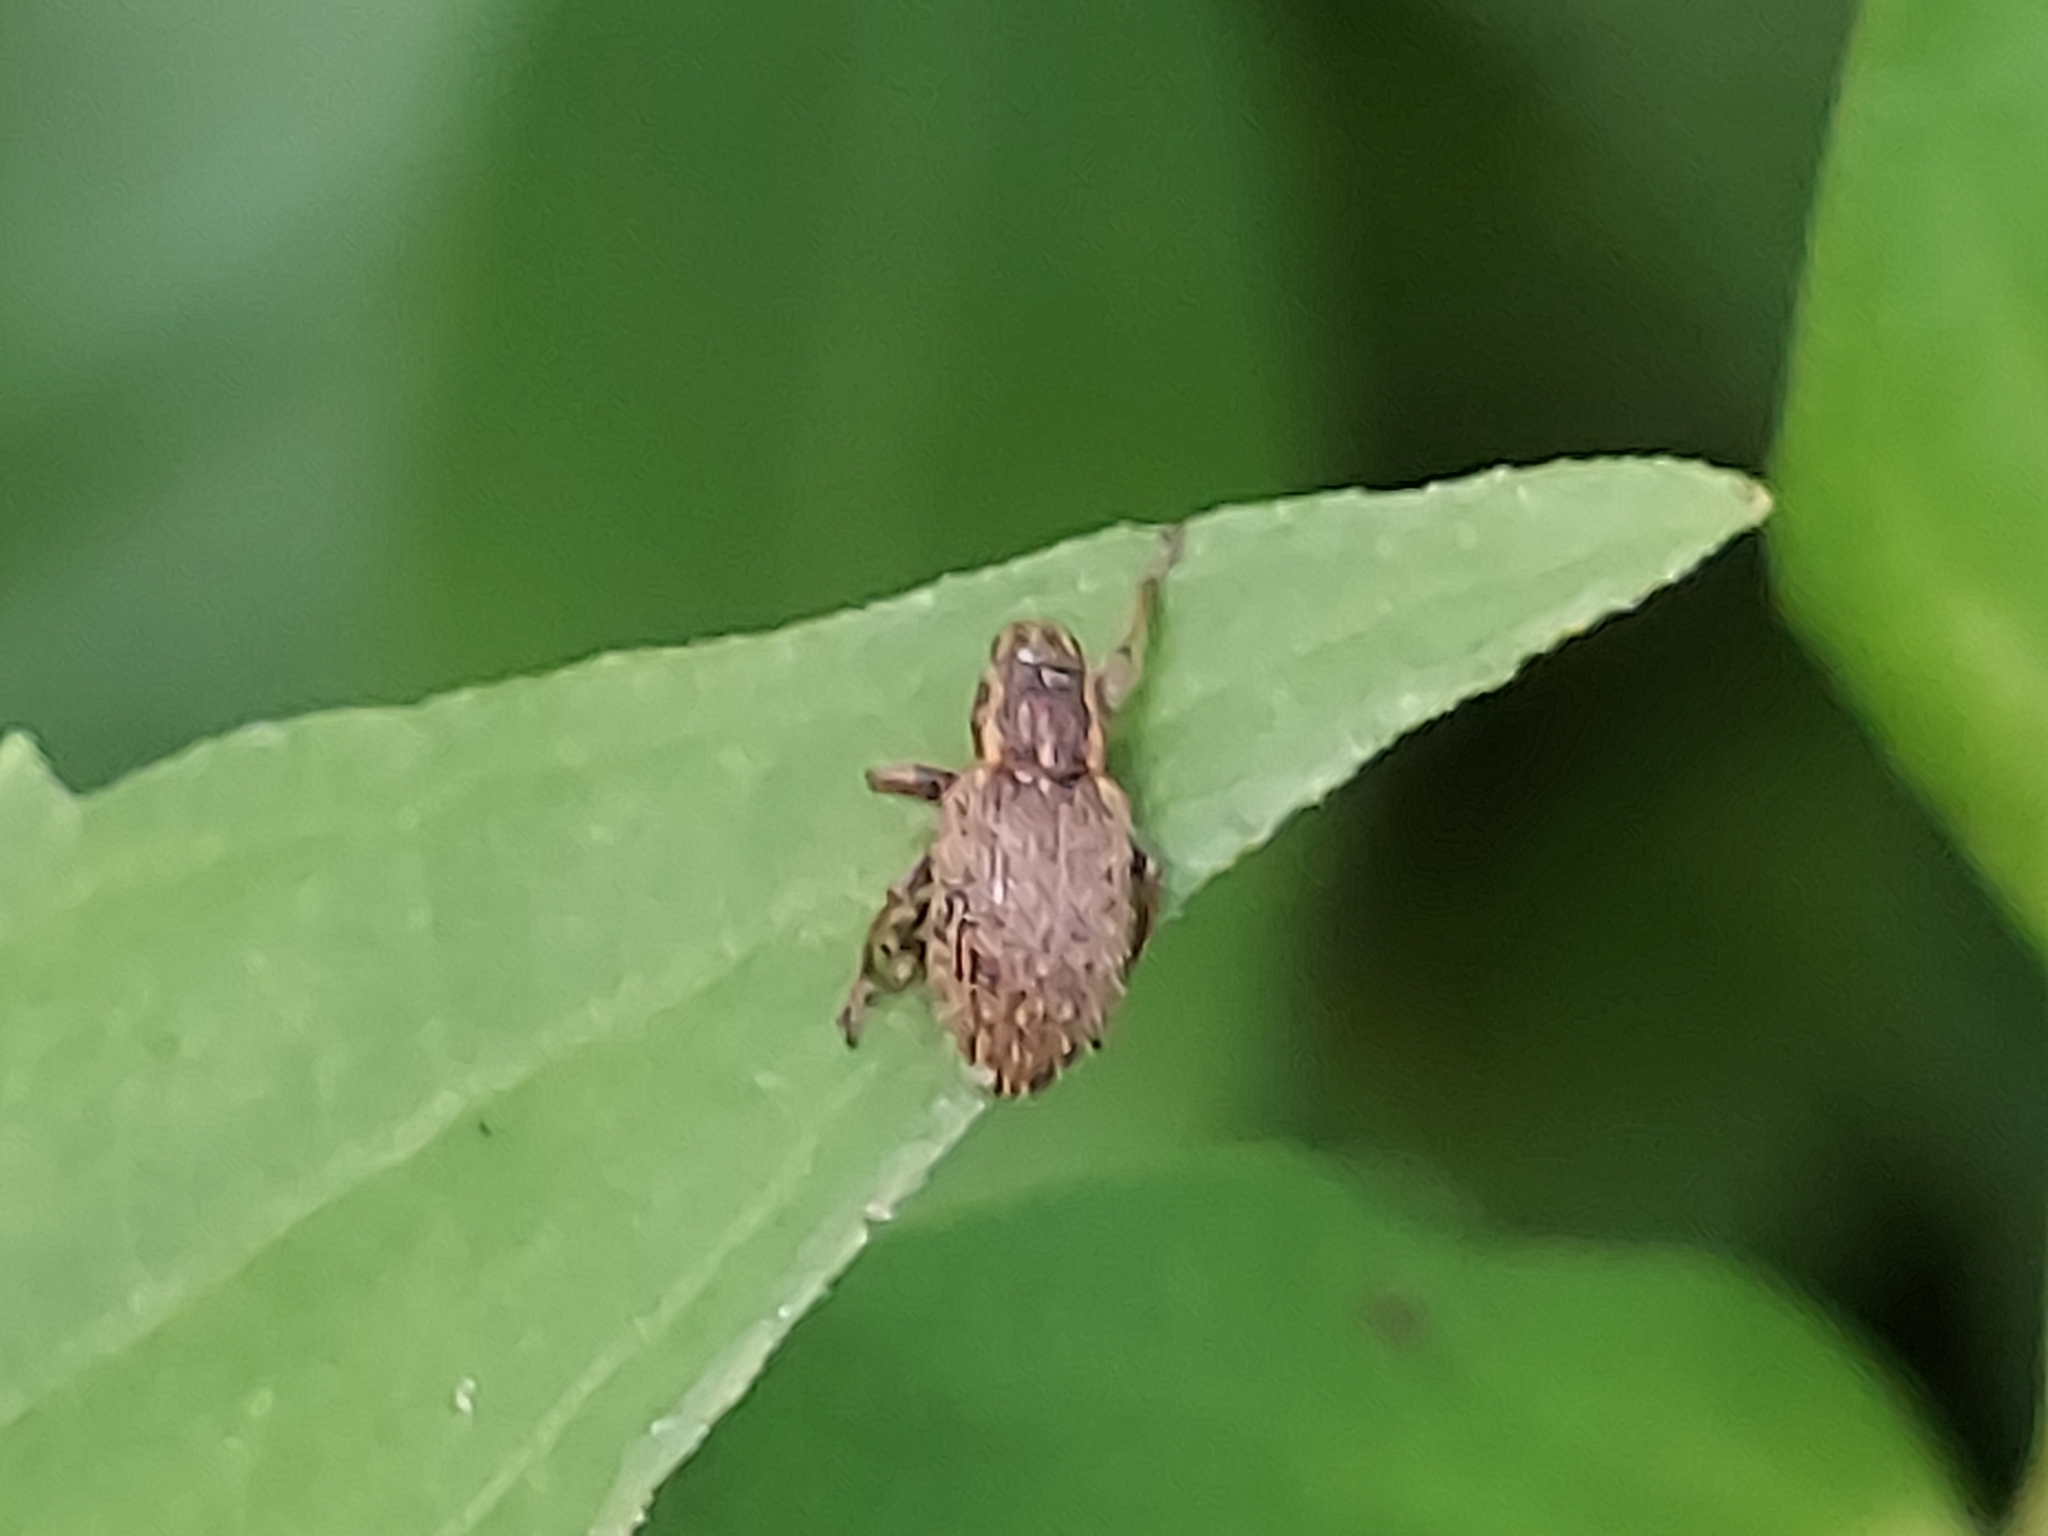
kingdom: Animalia
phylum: Arthropoda
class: Insecta
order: Coleoptera
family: Curculionidae
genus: Sitona
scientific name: Sitona hispidulus
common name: Clover weevil
